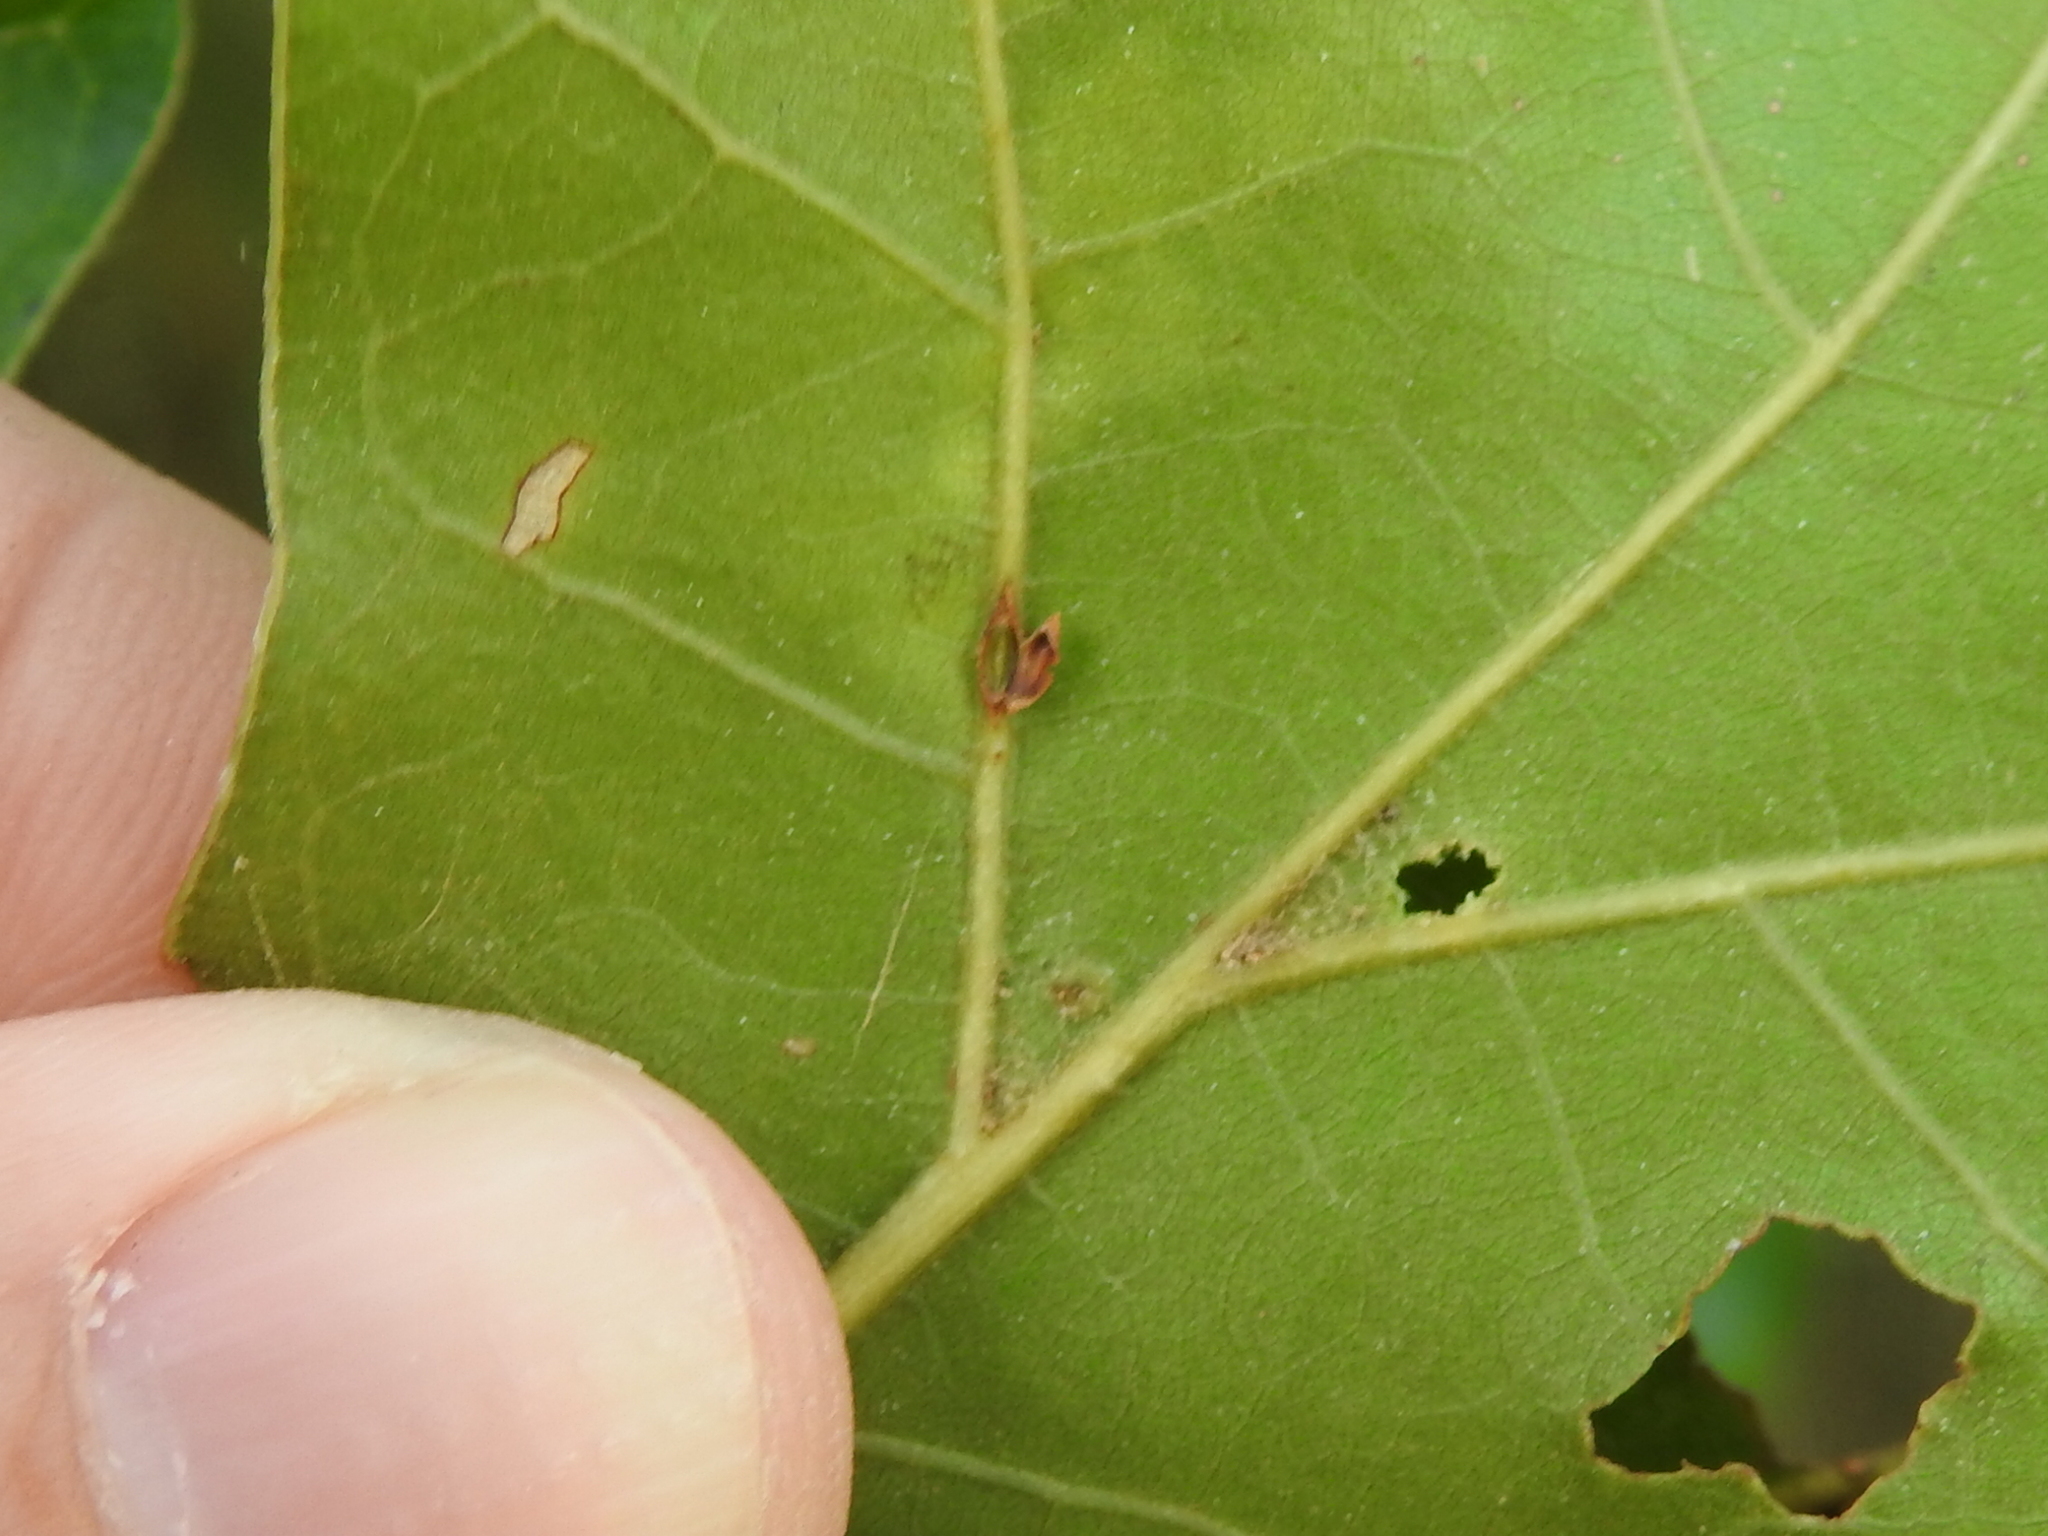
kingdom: Animalia
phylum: Arthropoda
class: Insecta
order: Hymenoptera
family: Cynipidae
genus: Kokkocynips
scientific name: Kokkocynips rileyi
